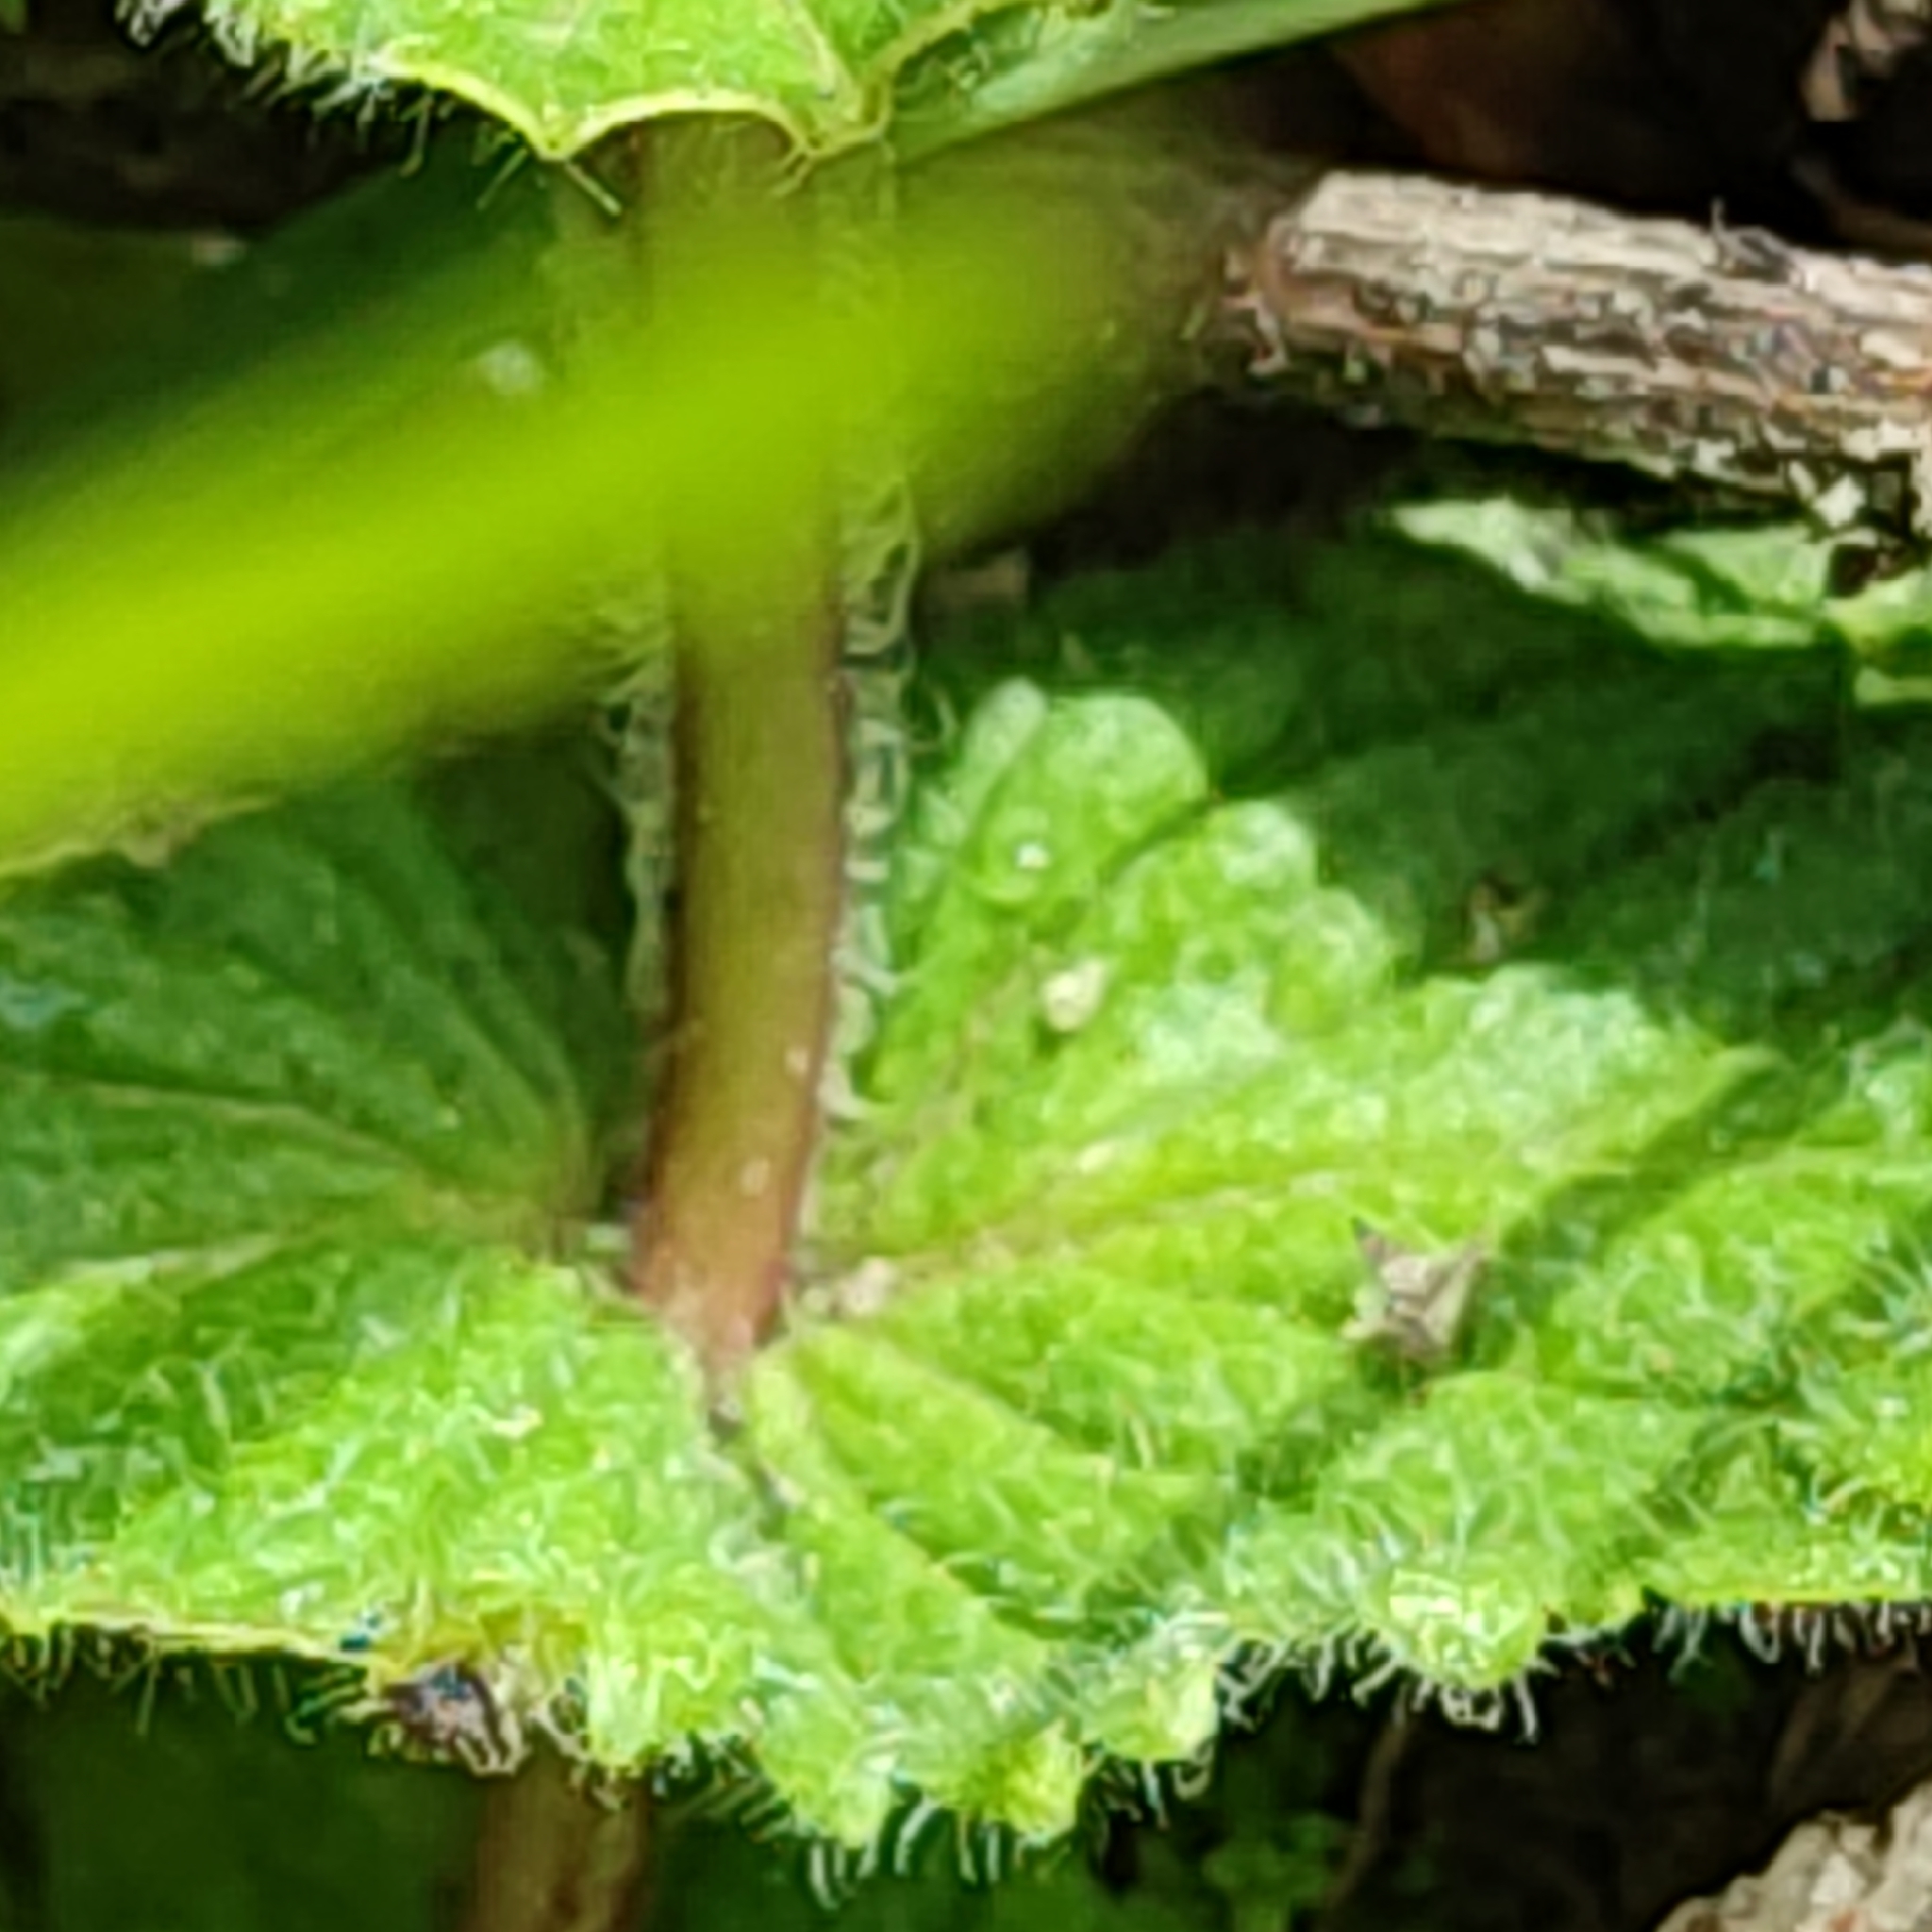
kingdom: Plantae
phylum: Tracheophyta
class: Magnoliopsida
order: Lamiales
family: Plantaginaceae
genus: Veronica
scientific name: Veronica chamaedrys
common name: Germander speedwell
